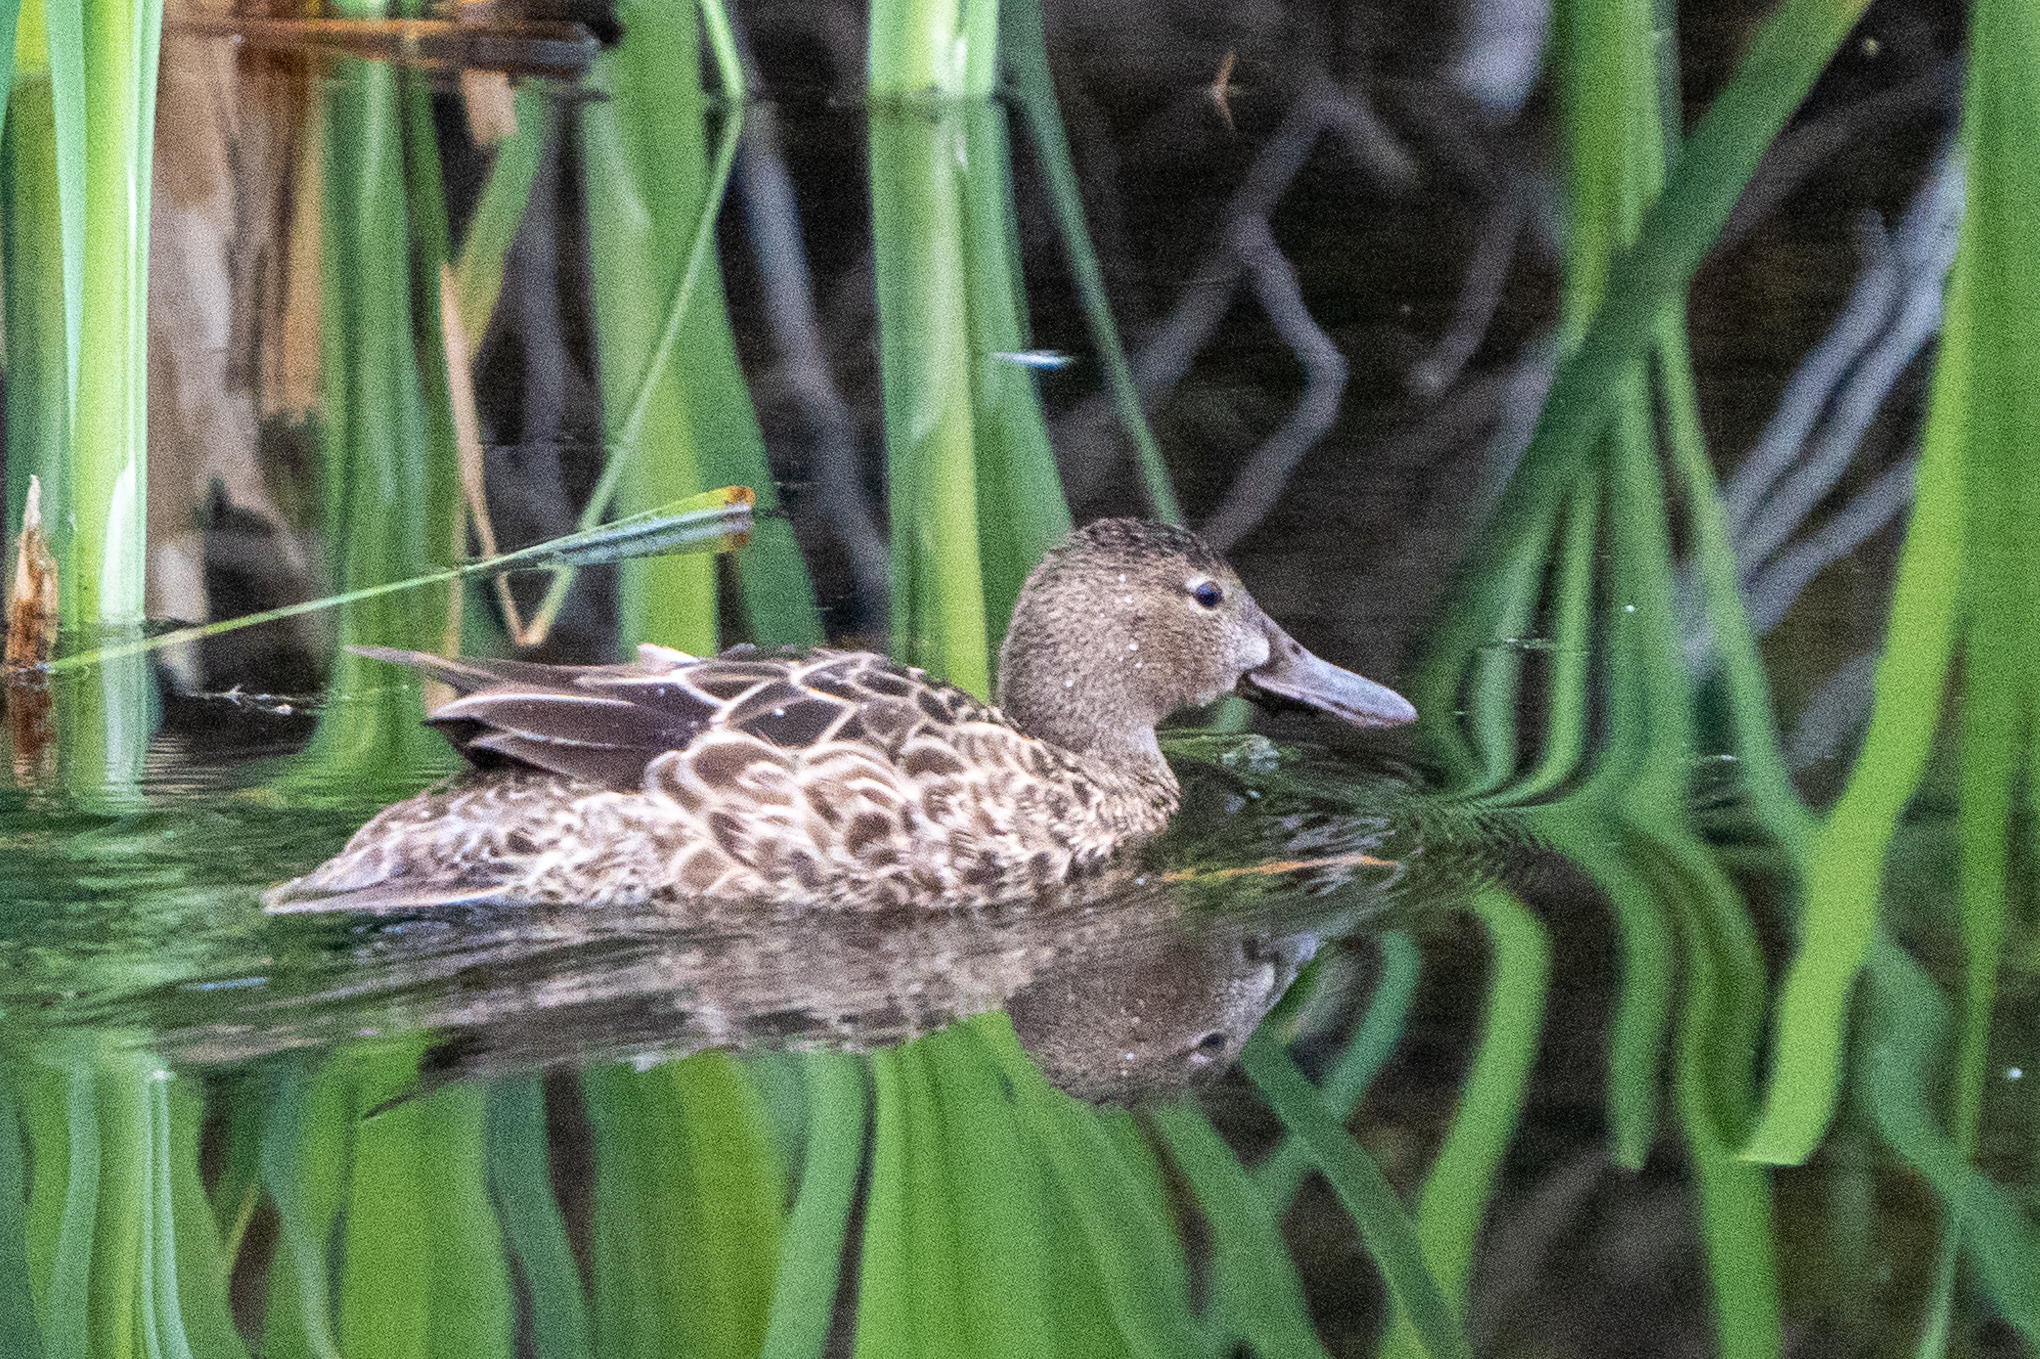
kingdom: Animalia
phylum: Chordata
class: Aves
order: Anseriformes
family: Anatidae
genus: Spatula
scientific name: Spatula cyanoptera
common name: Cinnamon teal
